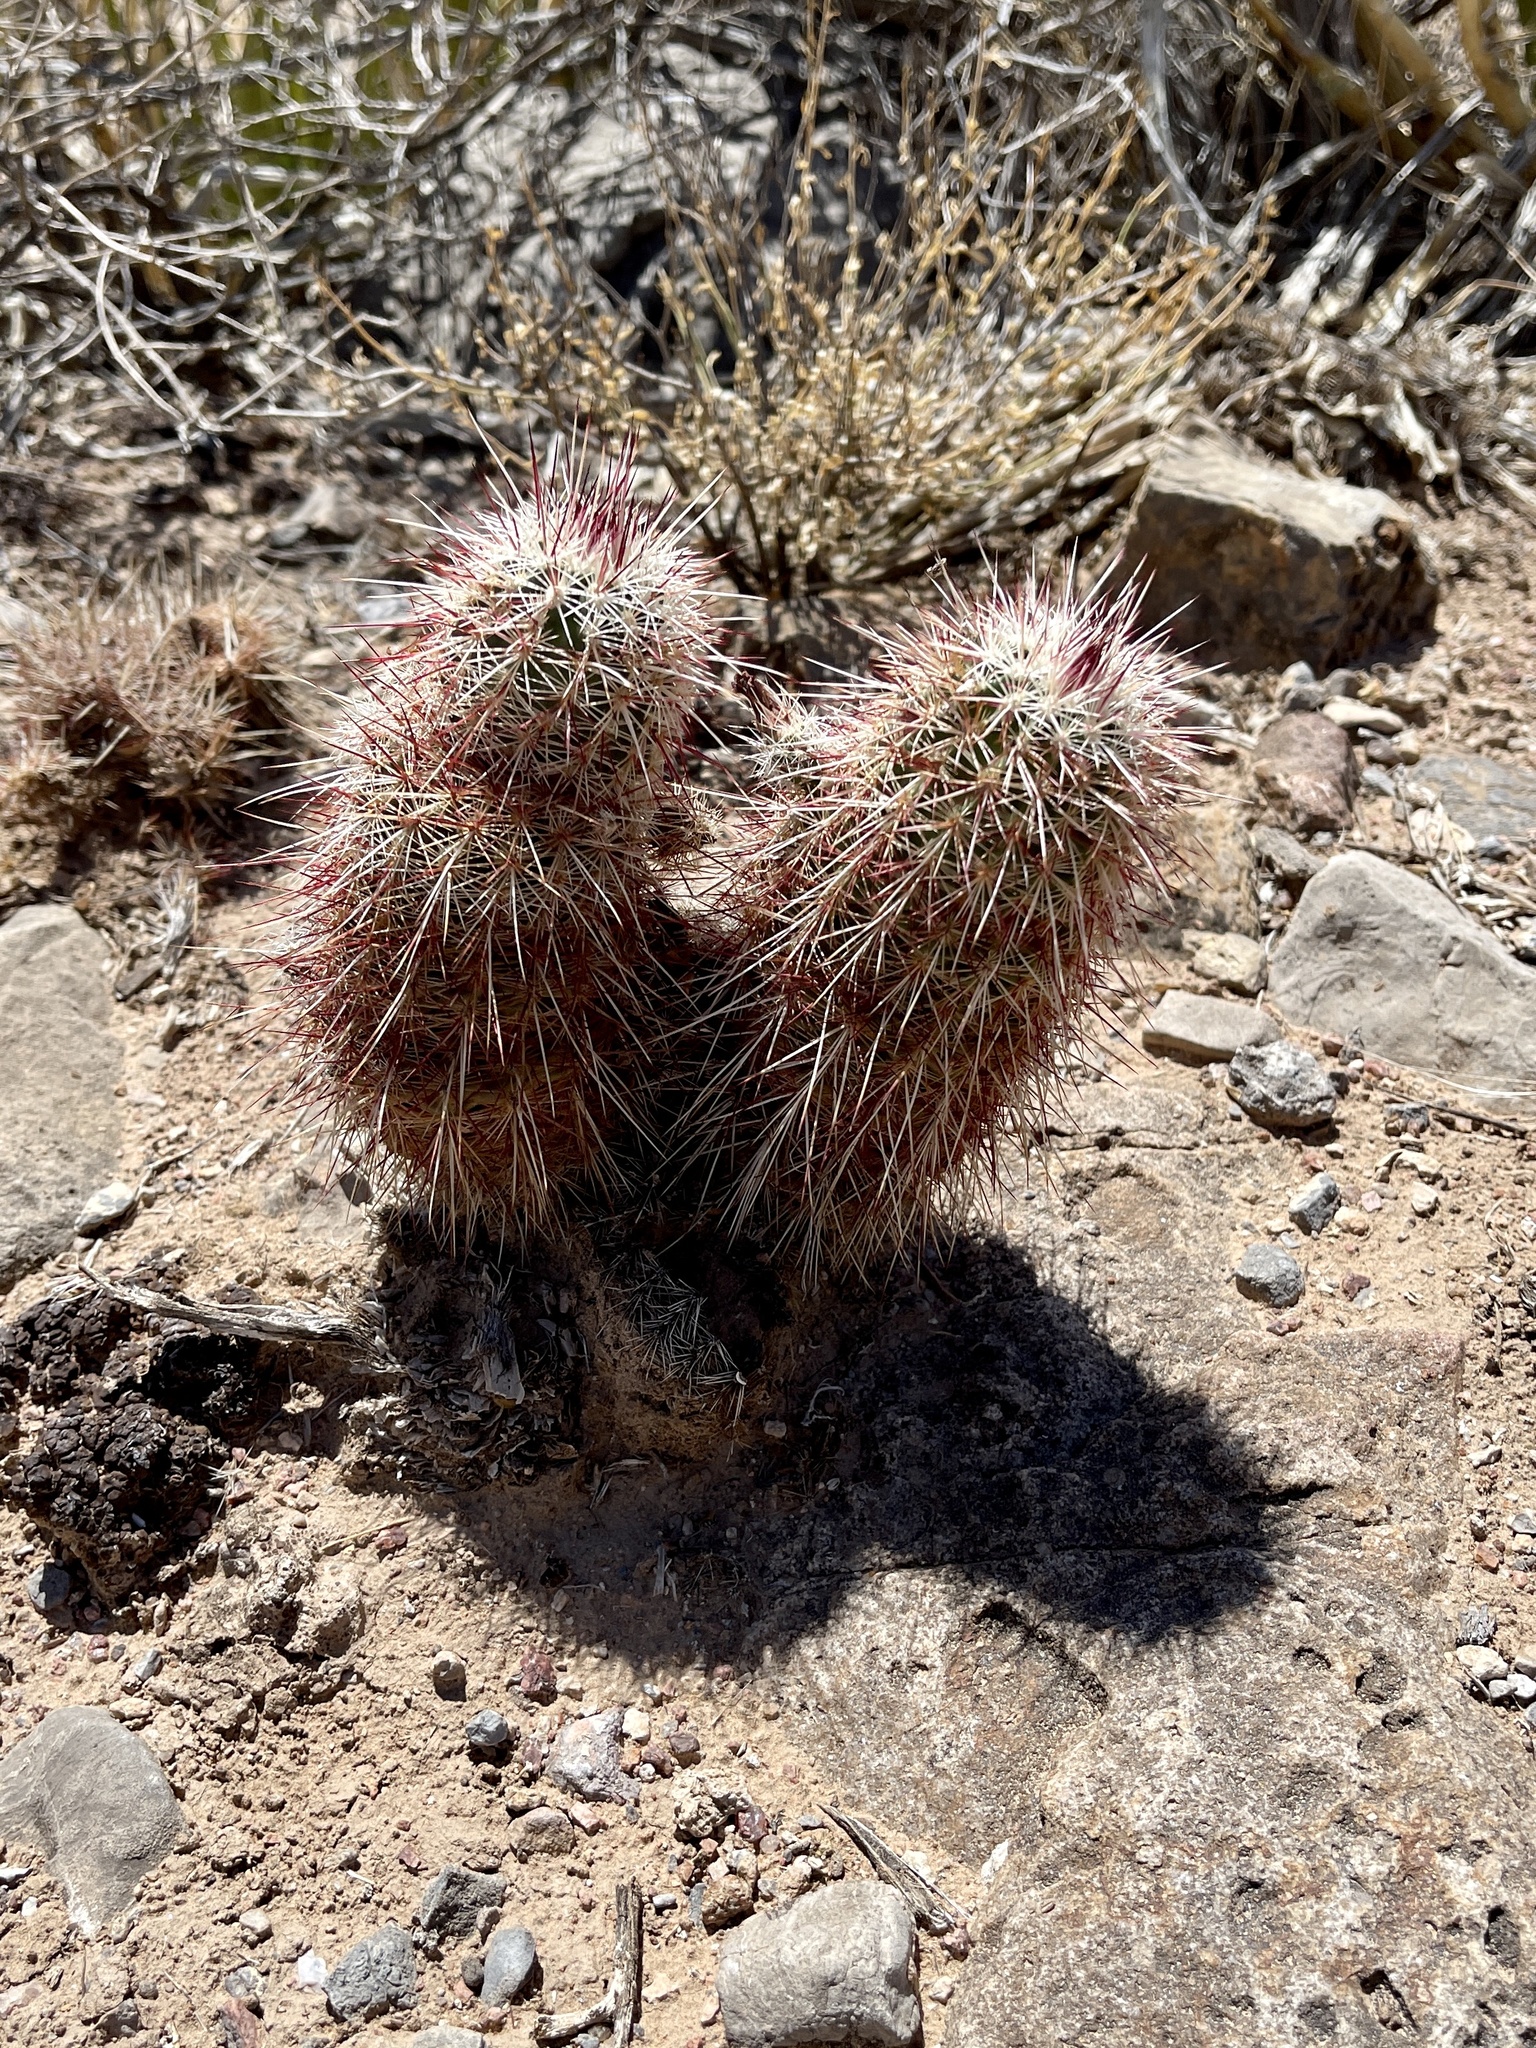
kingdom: Plantae
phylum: Tracheophyta
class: Magnoliopsida
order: Caryophyllales
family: Cactaceae
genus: Echinocereus
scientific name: Echinocereus viridiflorus
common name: Nylon hedgehog cactus
